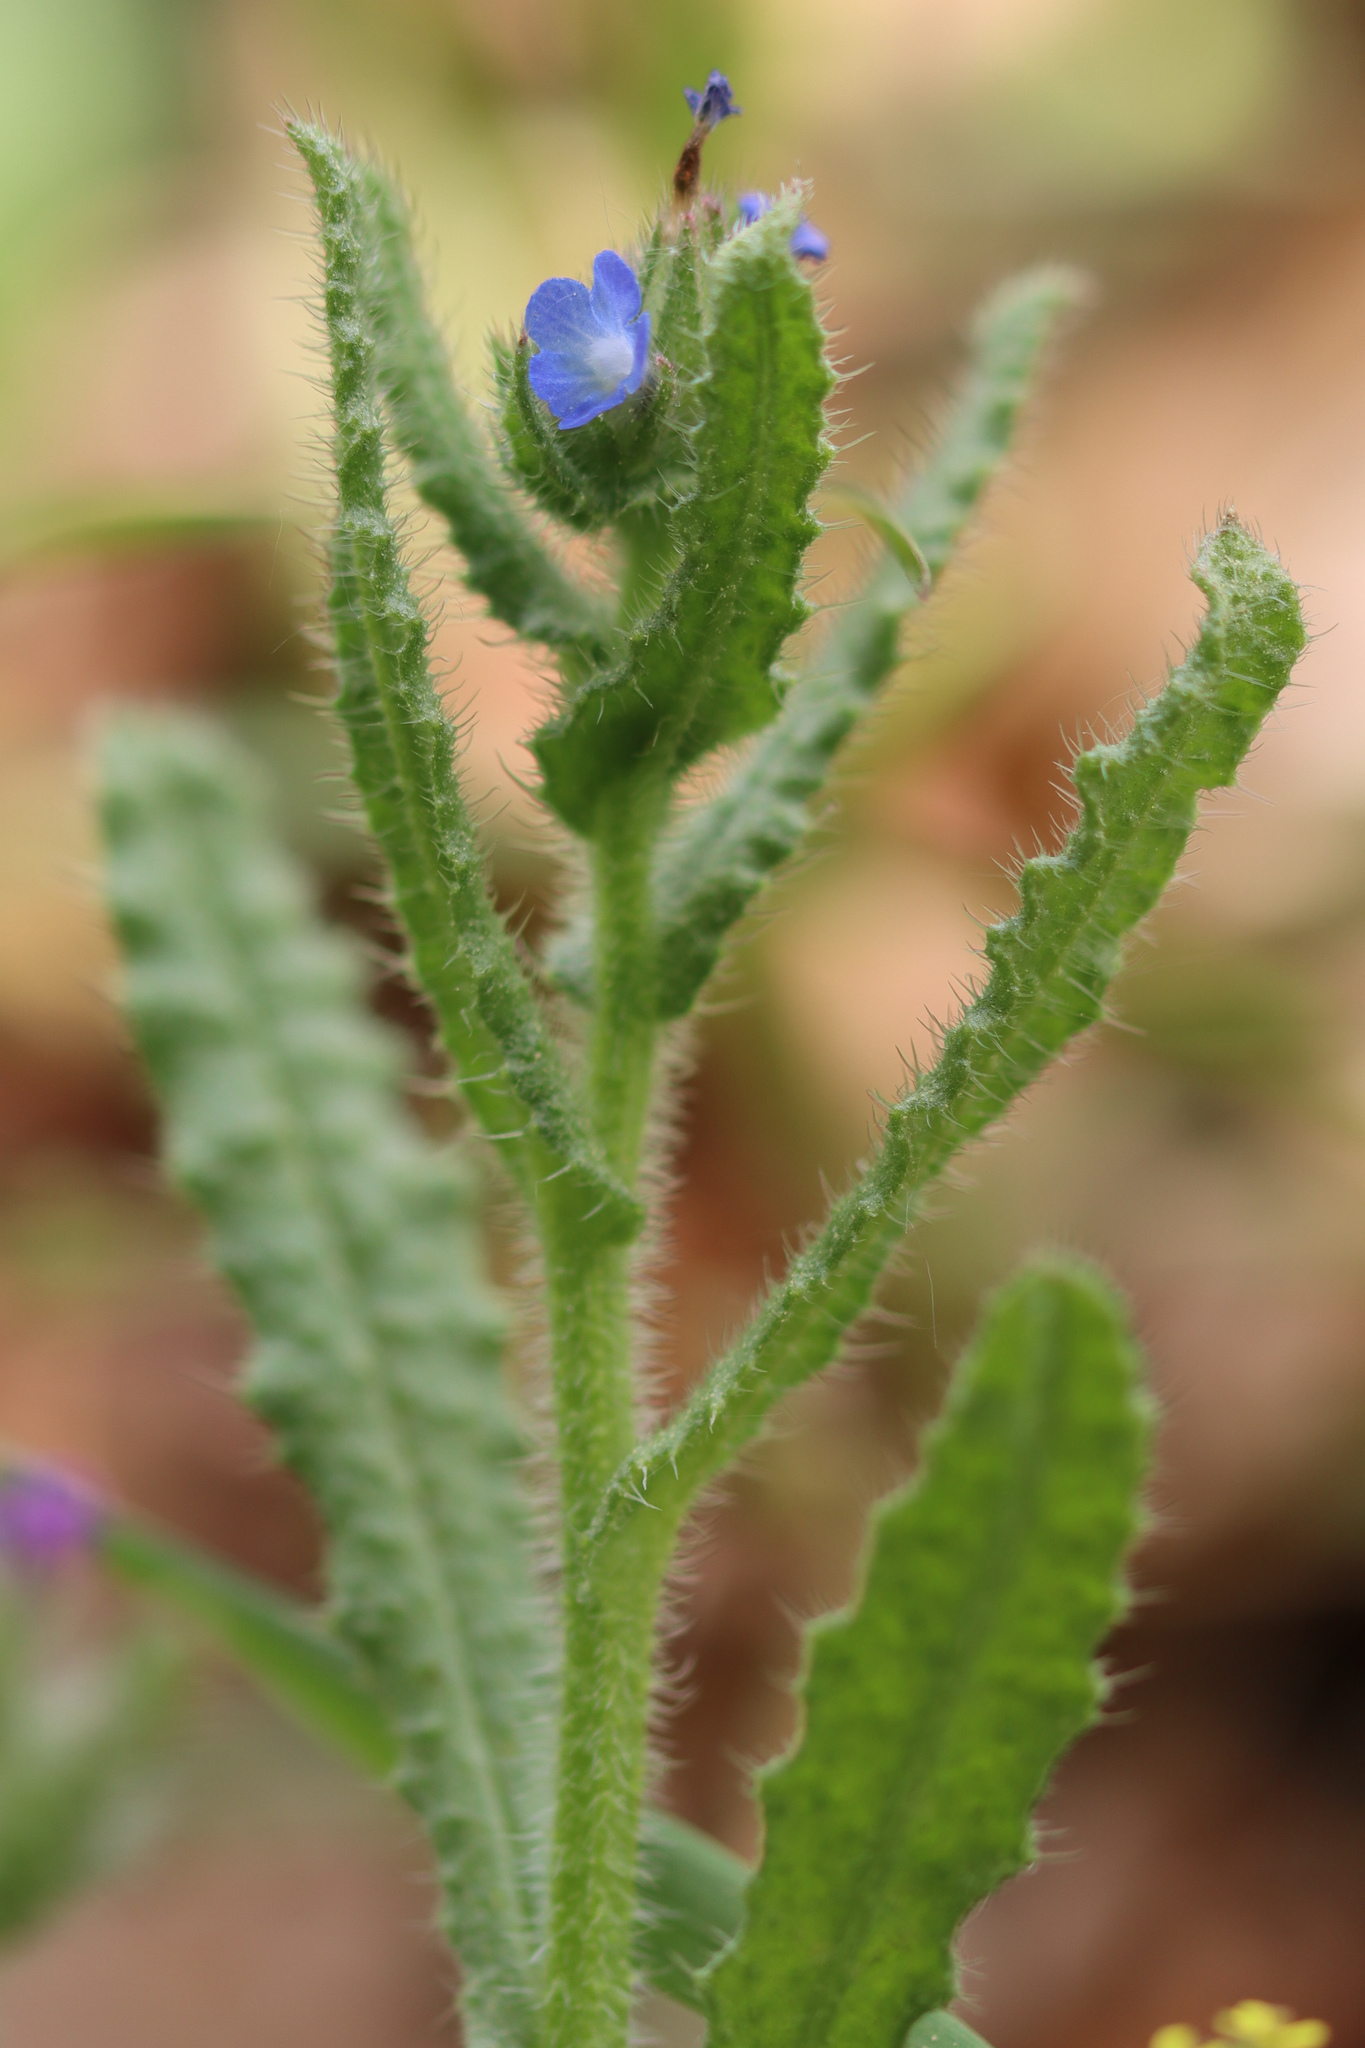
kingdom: Plantae
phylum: Tracheophyta
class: Magnoliopsida
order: Boraginales
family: Boraginaceae
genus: Lycopsis
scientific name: Lycopsis arvensis
